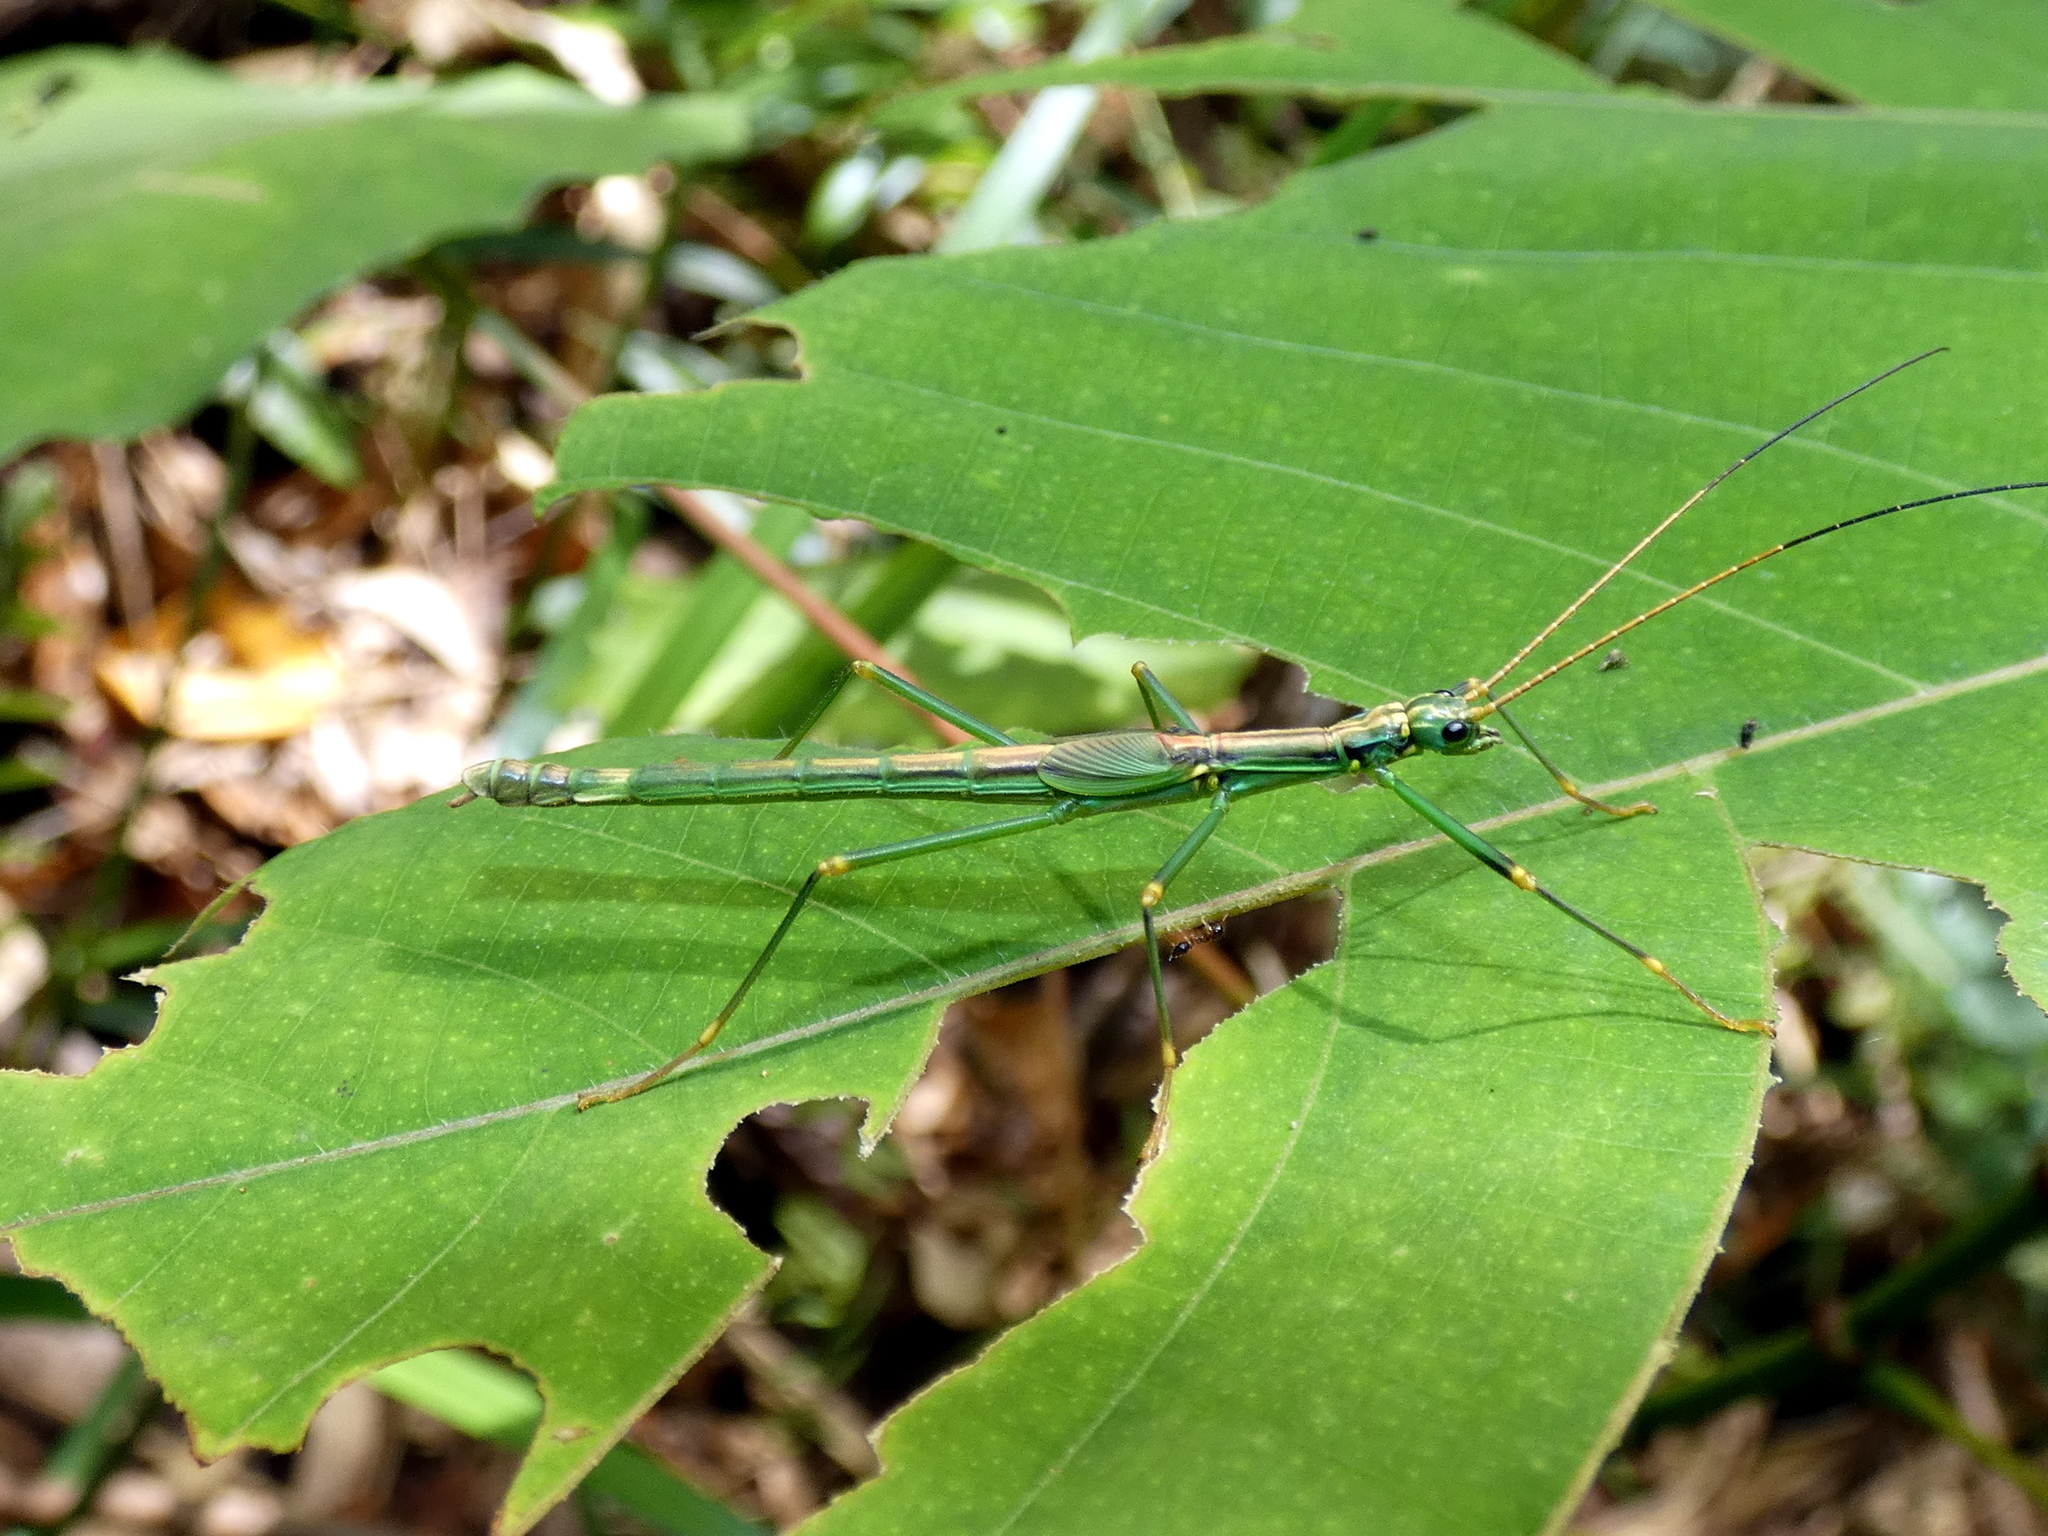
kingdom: Animalia
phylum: Arthropoda
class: Insecta
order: Phasmida
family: Aschiphasmatidae
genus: Parorthomeria
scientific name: Parorthomeria alexis
